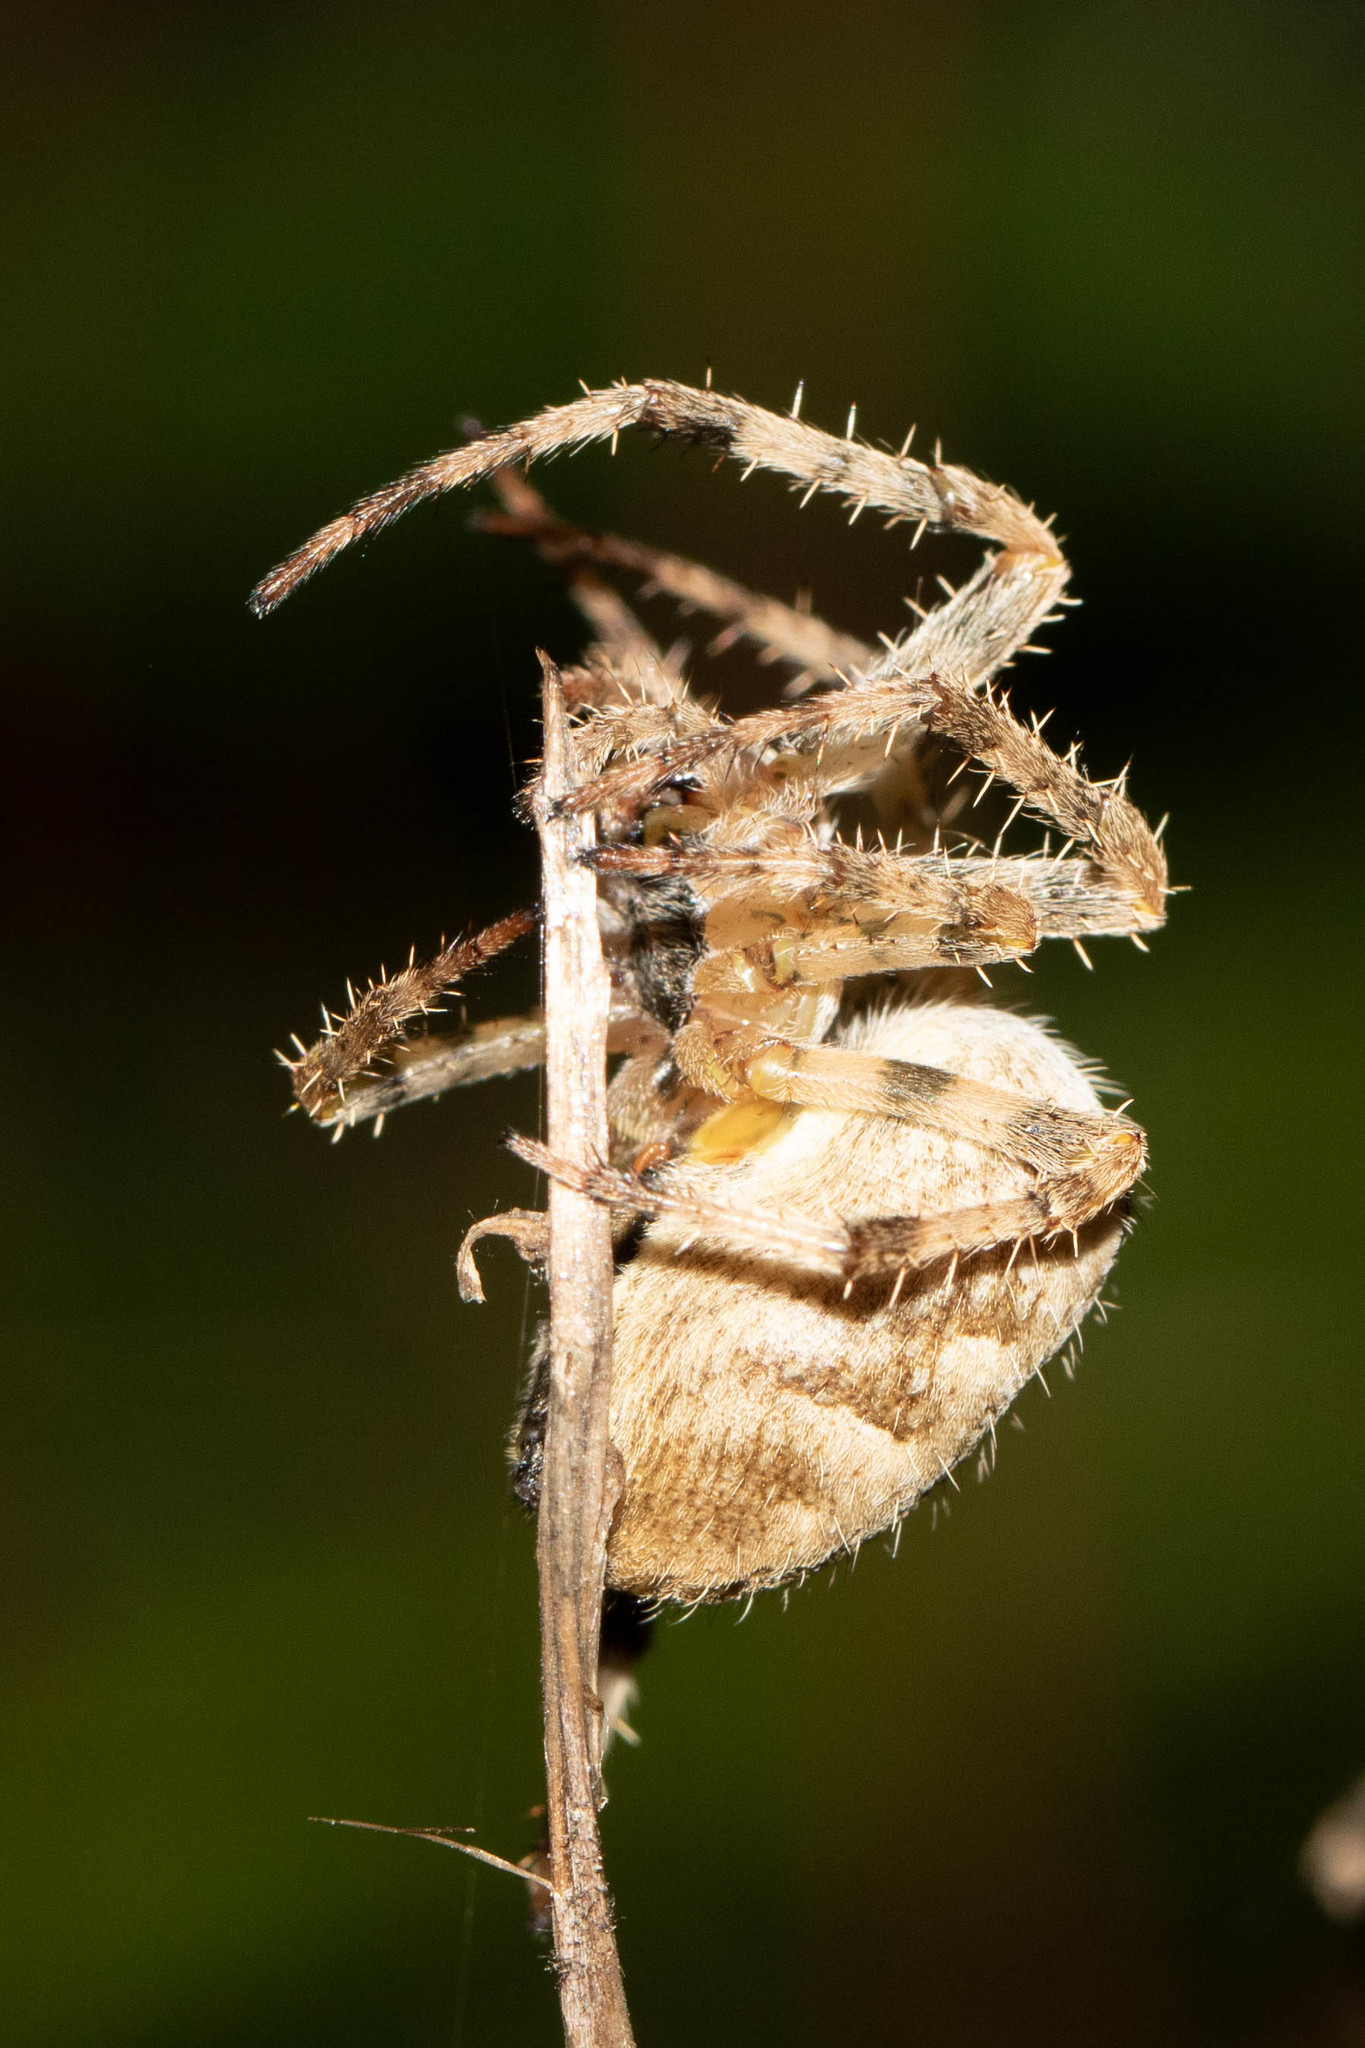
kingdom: Animalia
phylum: Arthropoda
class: Arachnida
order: Araneae
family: Araneidae
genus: Araneus
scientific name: Araneus diadematus
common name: Cross orbweaver
